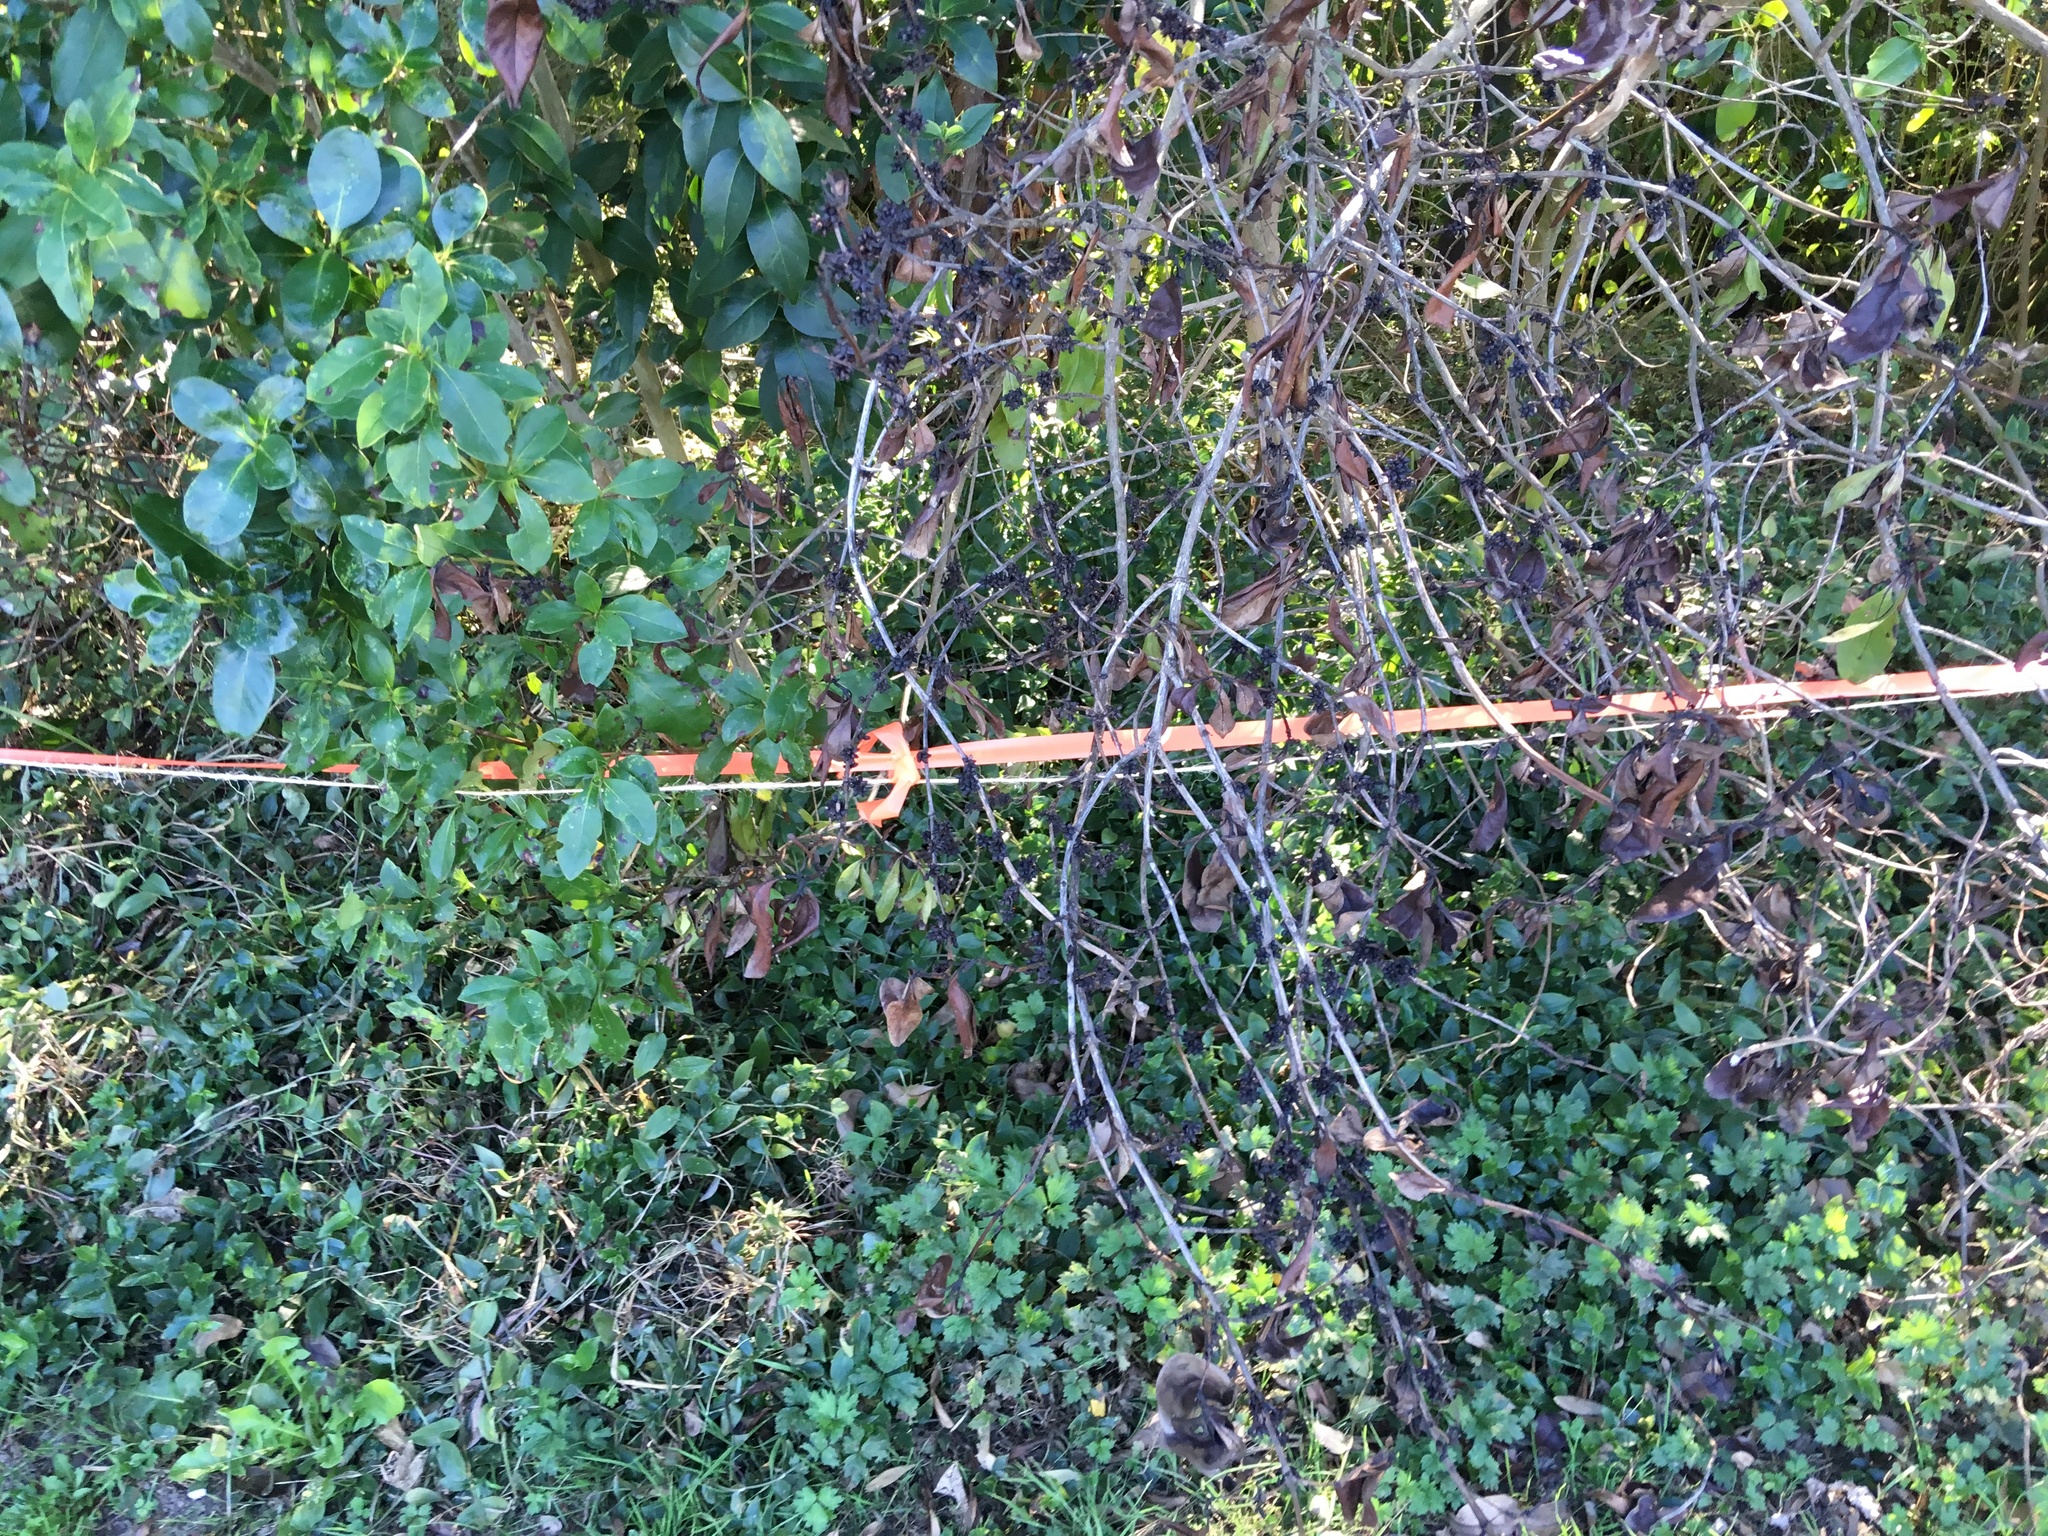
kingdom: Plantae
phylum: Tracheophyta
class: Magnoliopsida
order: Ranunculales
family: Ranunculaceae
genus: Ranunculus
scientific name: Ranunculus repens
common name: Creeping buttercup
